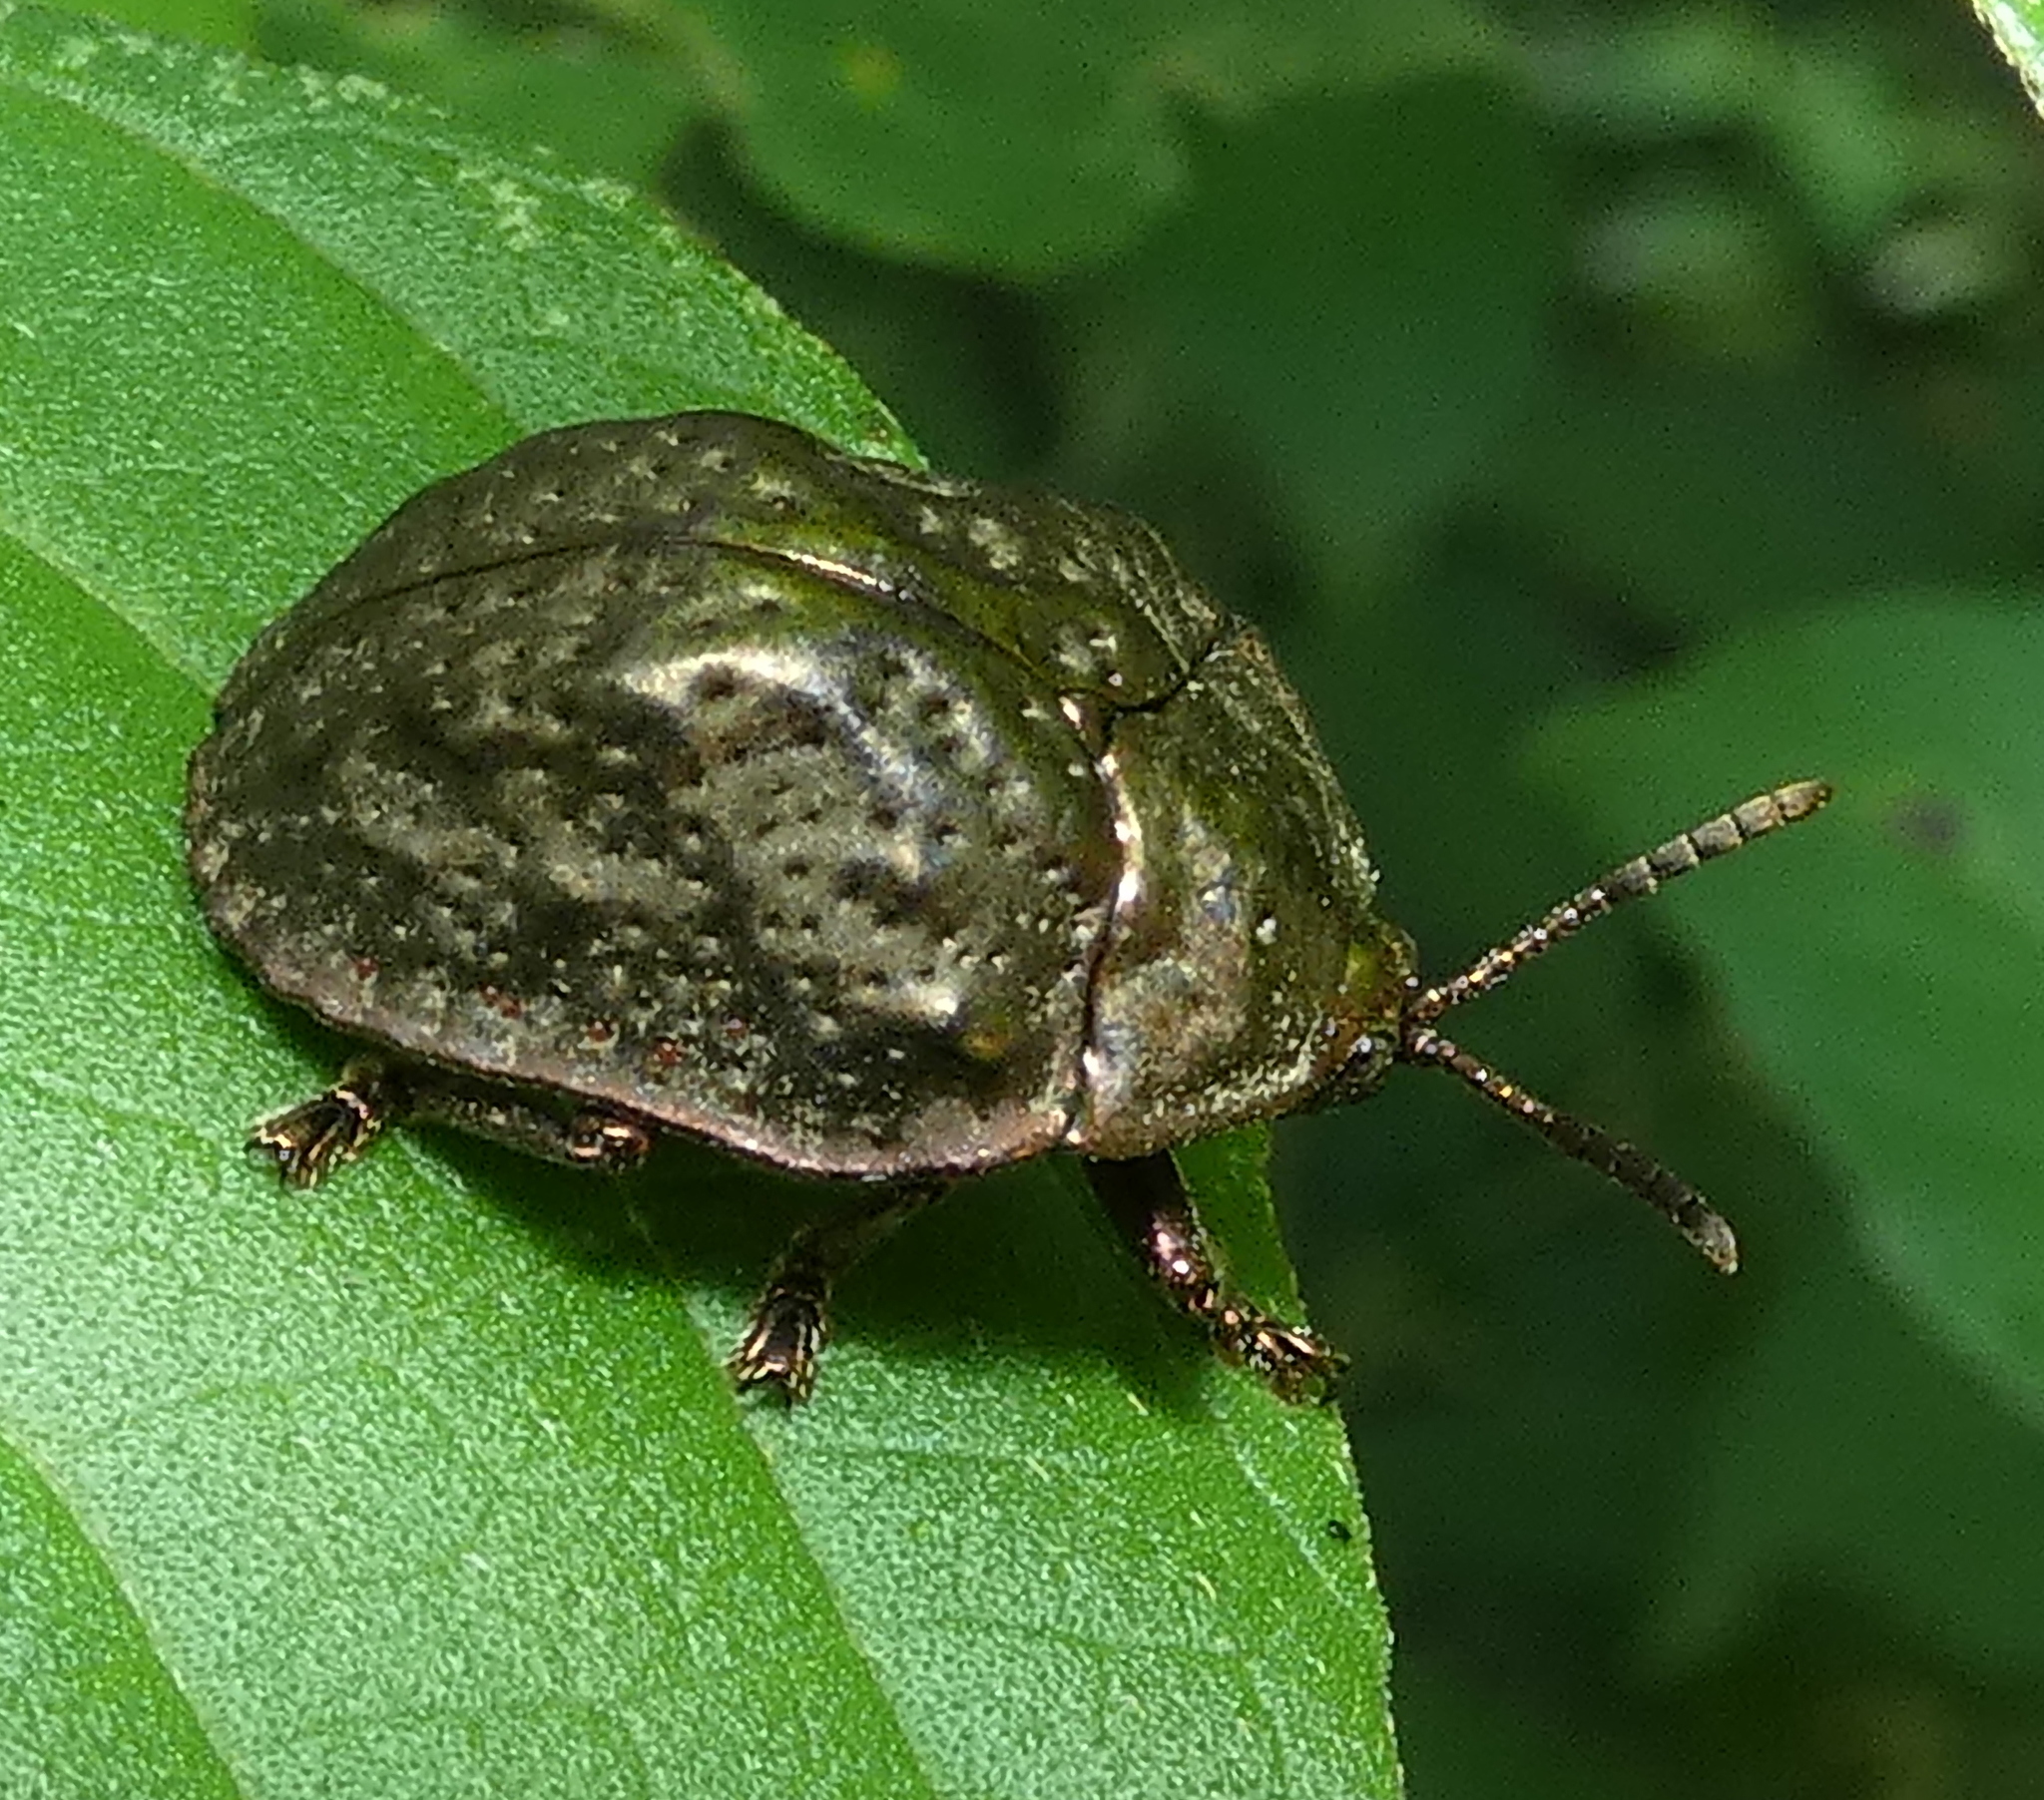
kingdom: Animalia
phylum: Arthropoda
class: Insecta
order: Coleoptera
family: Chrysomelidae
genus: Polychalca
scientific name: Polychalca aerea
